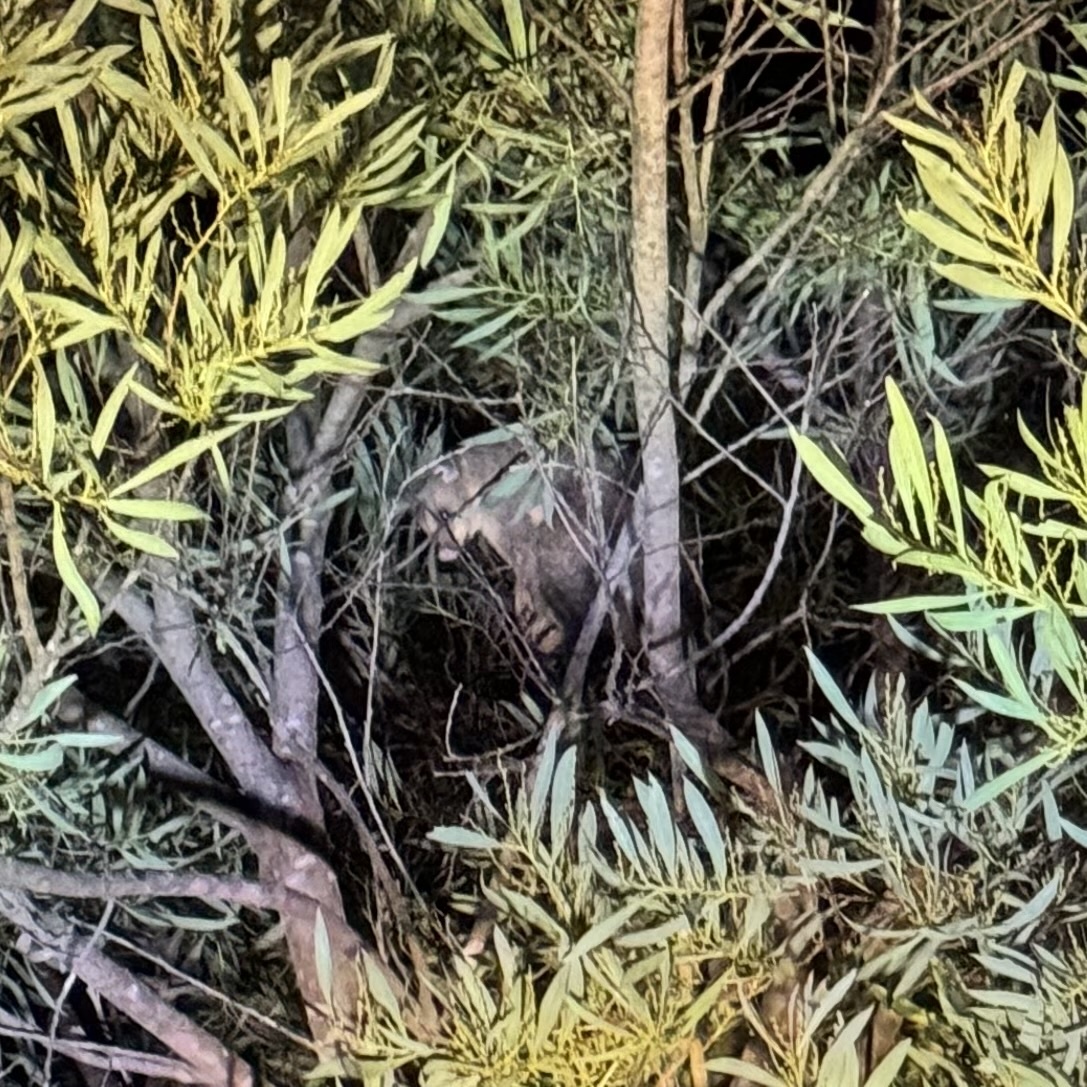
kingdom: Animalia
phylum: Chordata
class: Mammalia
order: Diprotodontia
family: Phalangeridae
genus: Trichosurus
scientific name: Trichosurus vulpecula
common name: Common brushtail
